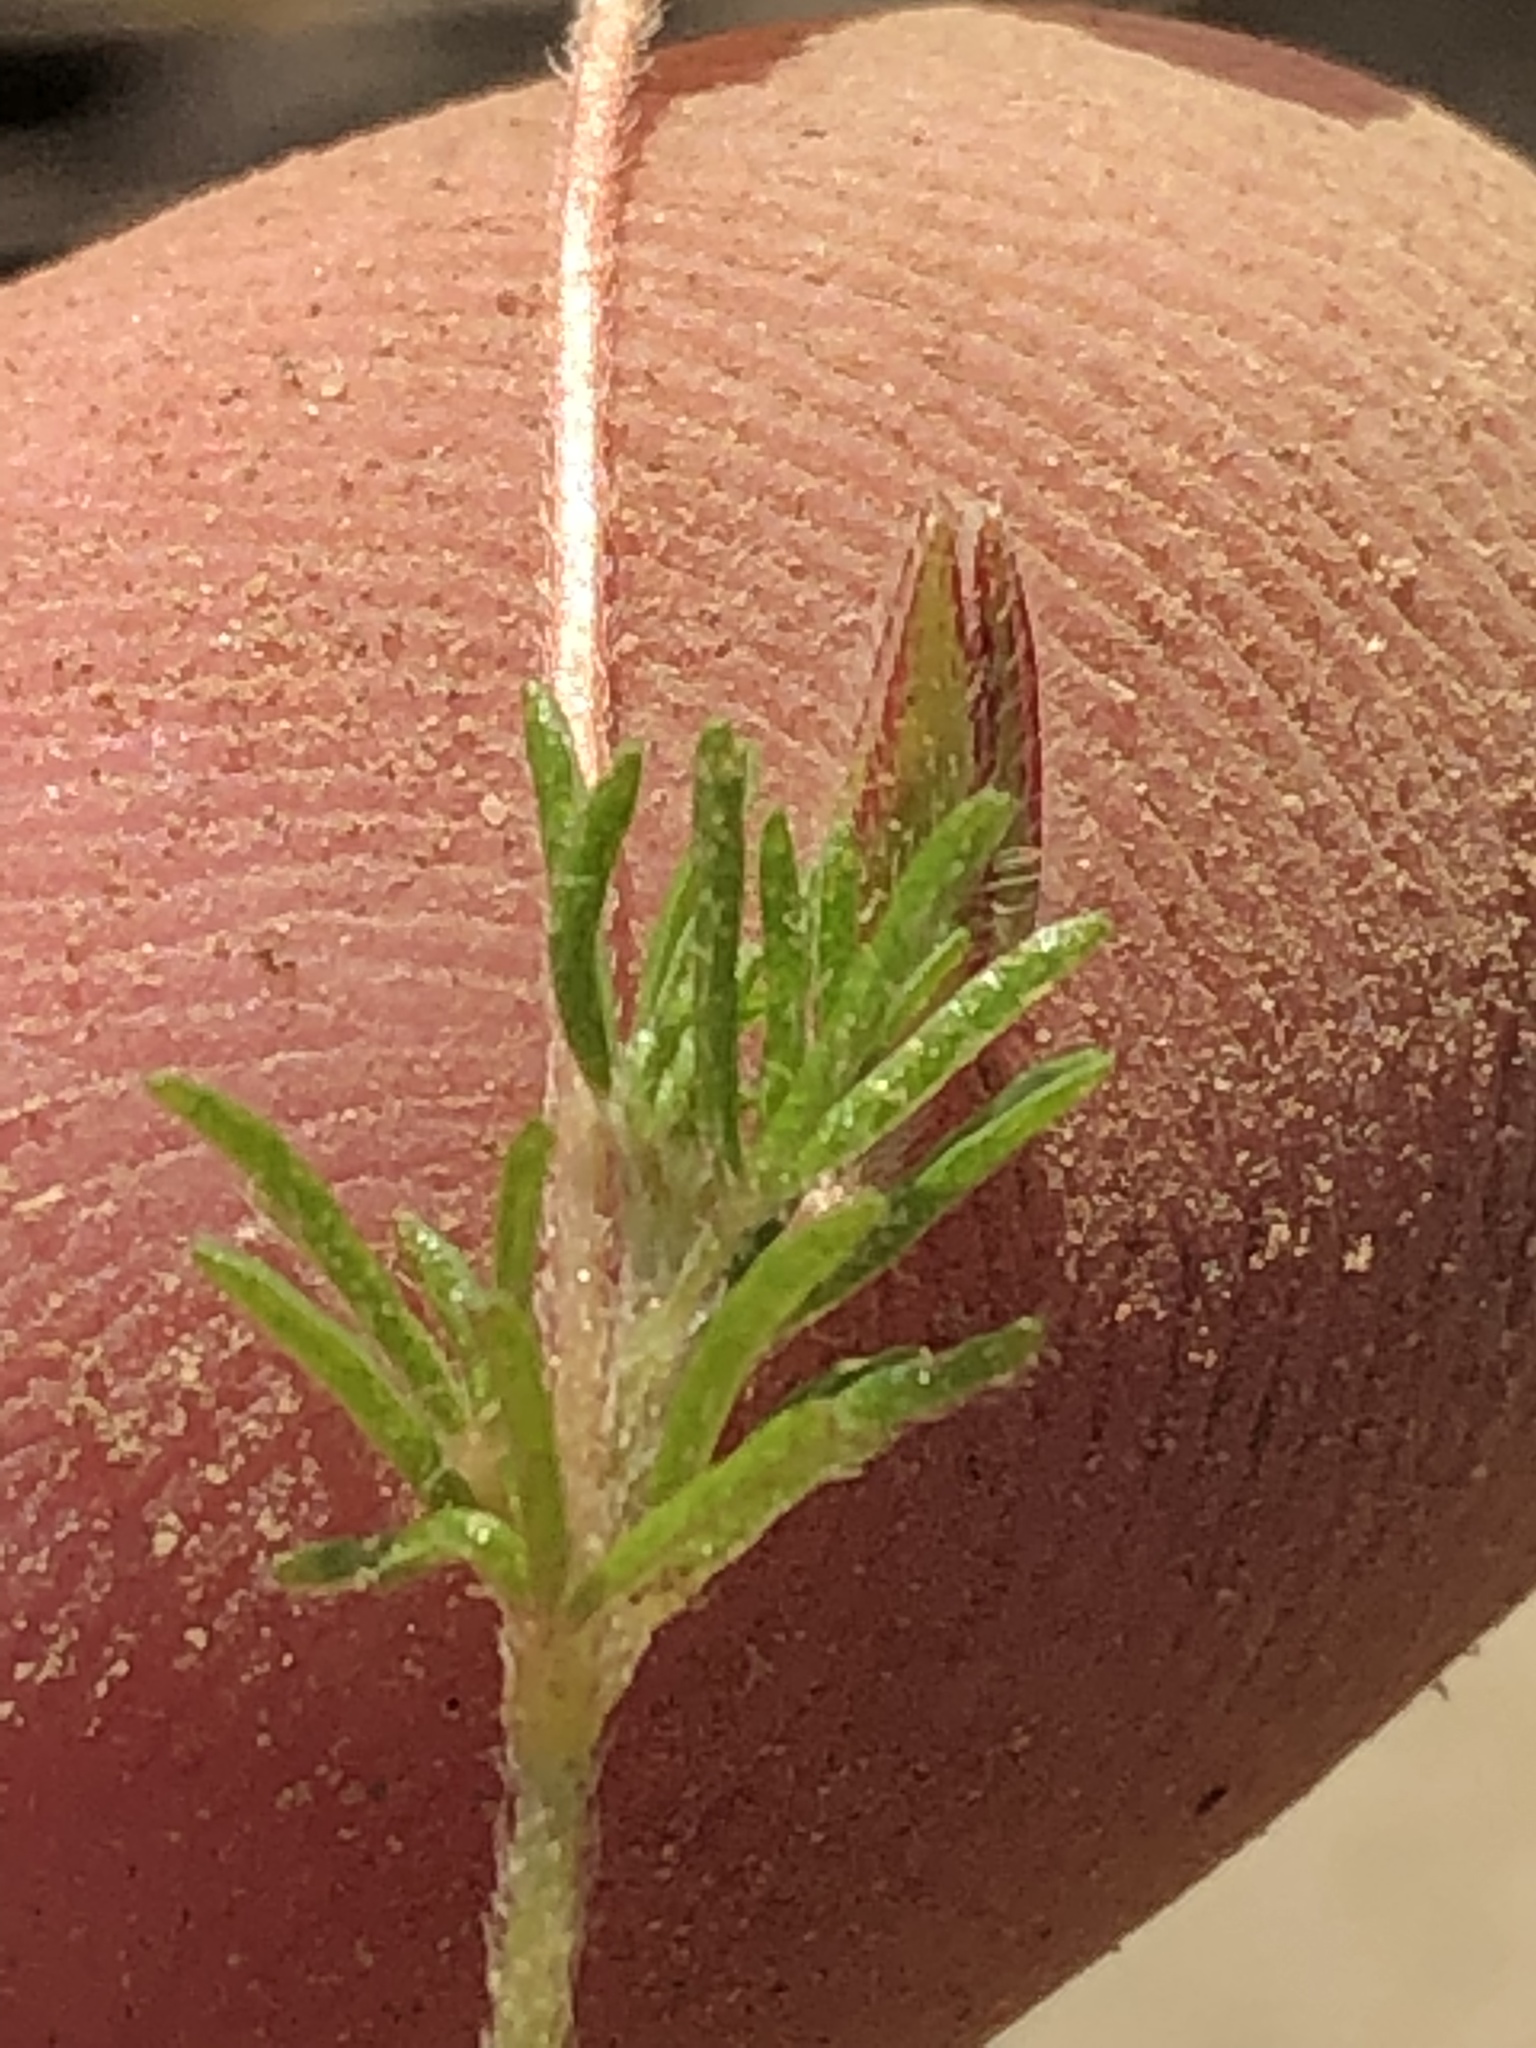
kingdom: Plantae
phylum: Tracheophyta
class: Magnoliopsida
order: Oxalidales
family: Oxalidaceae
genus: Oxalis
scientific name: Oxalis tenuifolia
